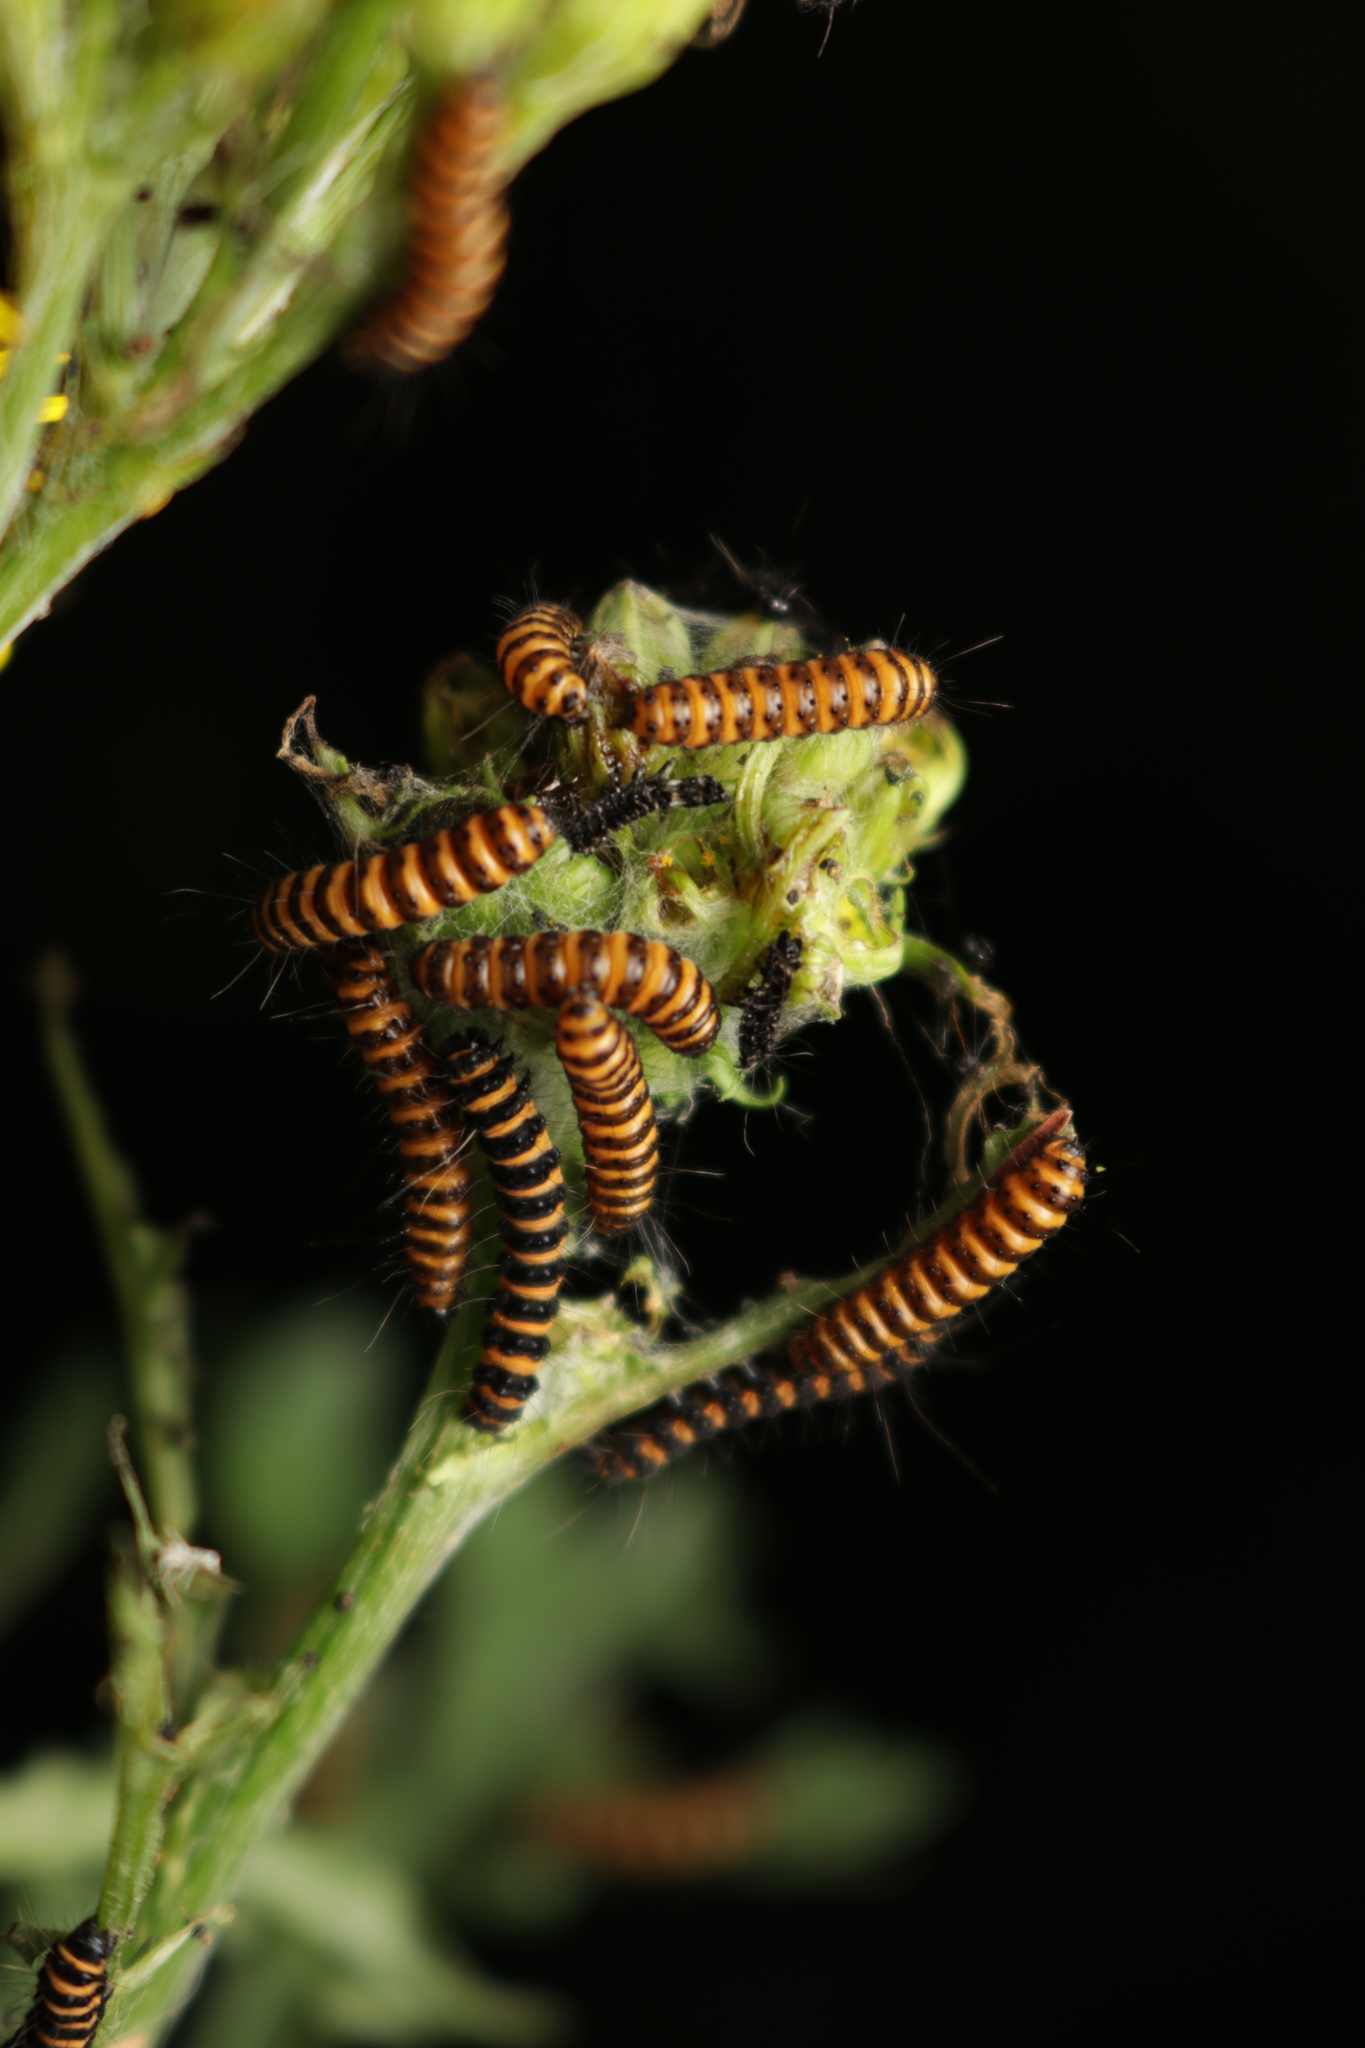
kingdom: Animalia
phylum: Arthropoda
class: Insecta
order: Lepidoptera
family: Erebidae
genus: Tyria
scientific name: Tyria jacobaeae
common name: Cinnabar
